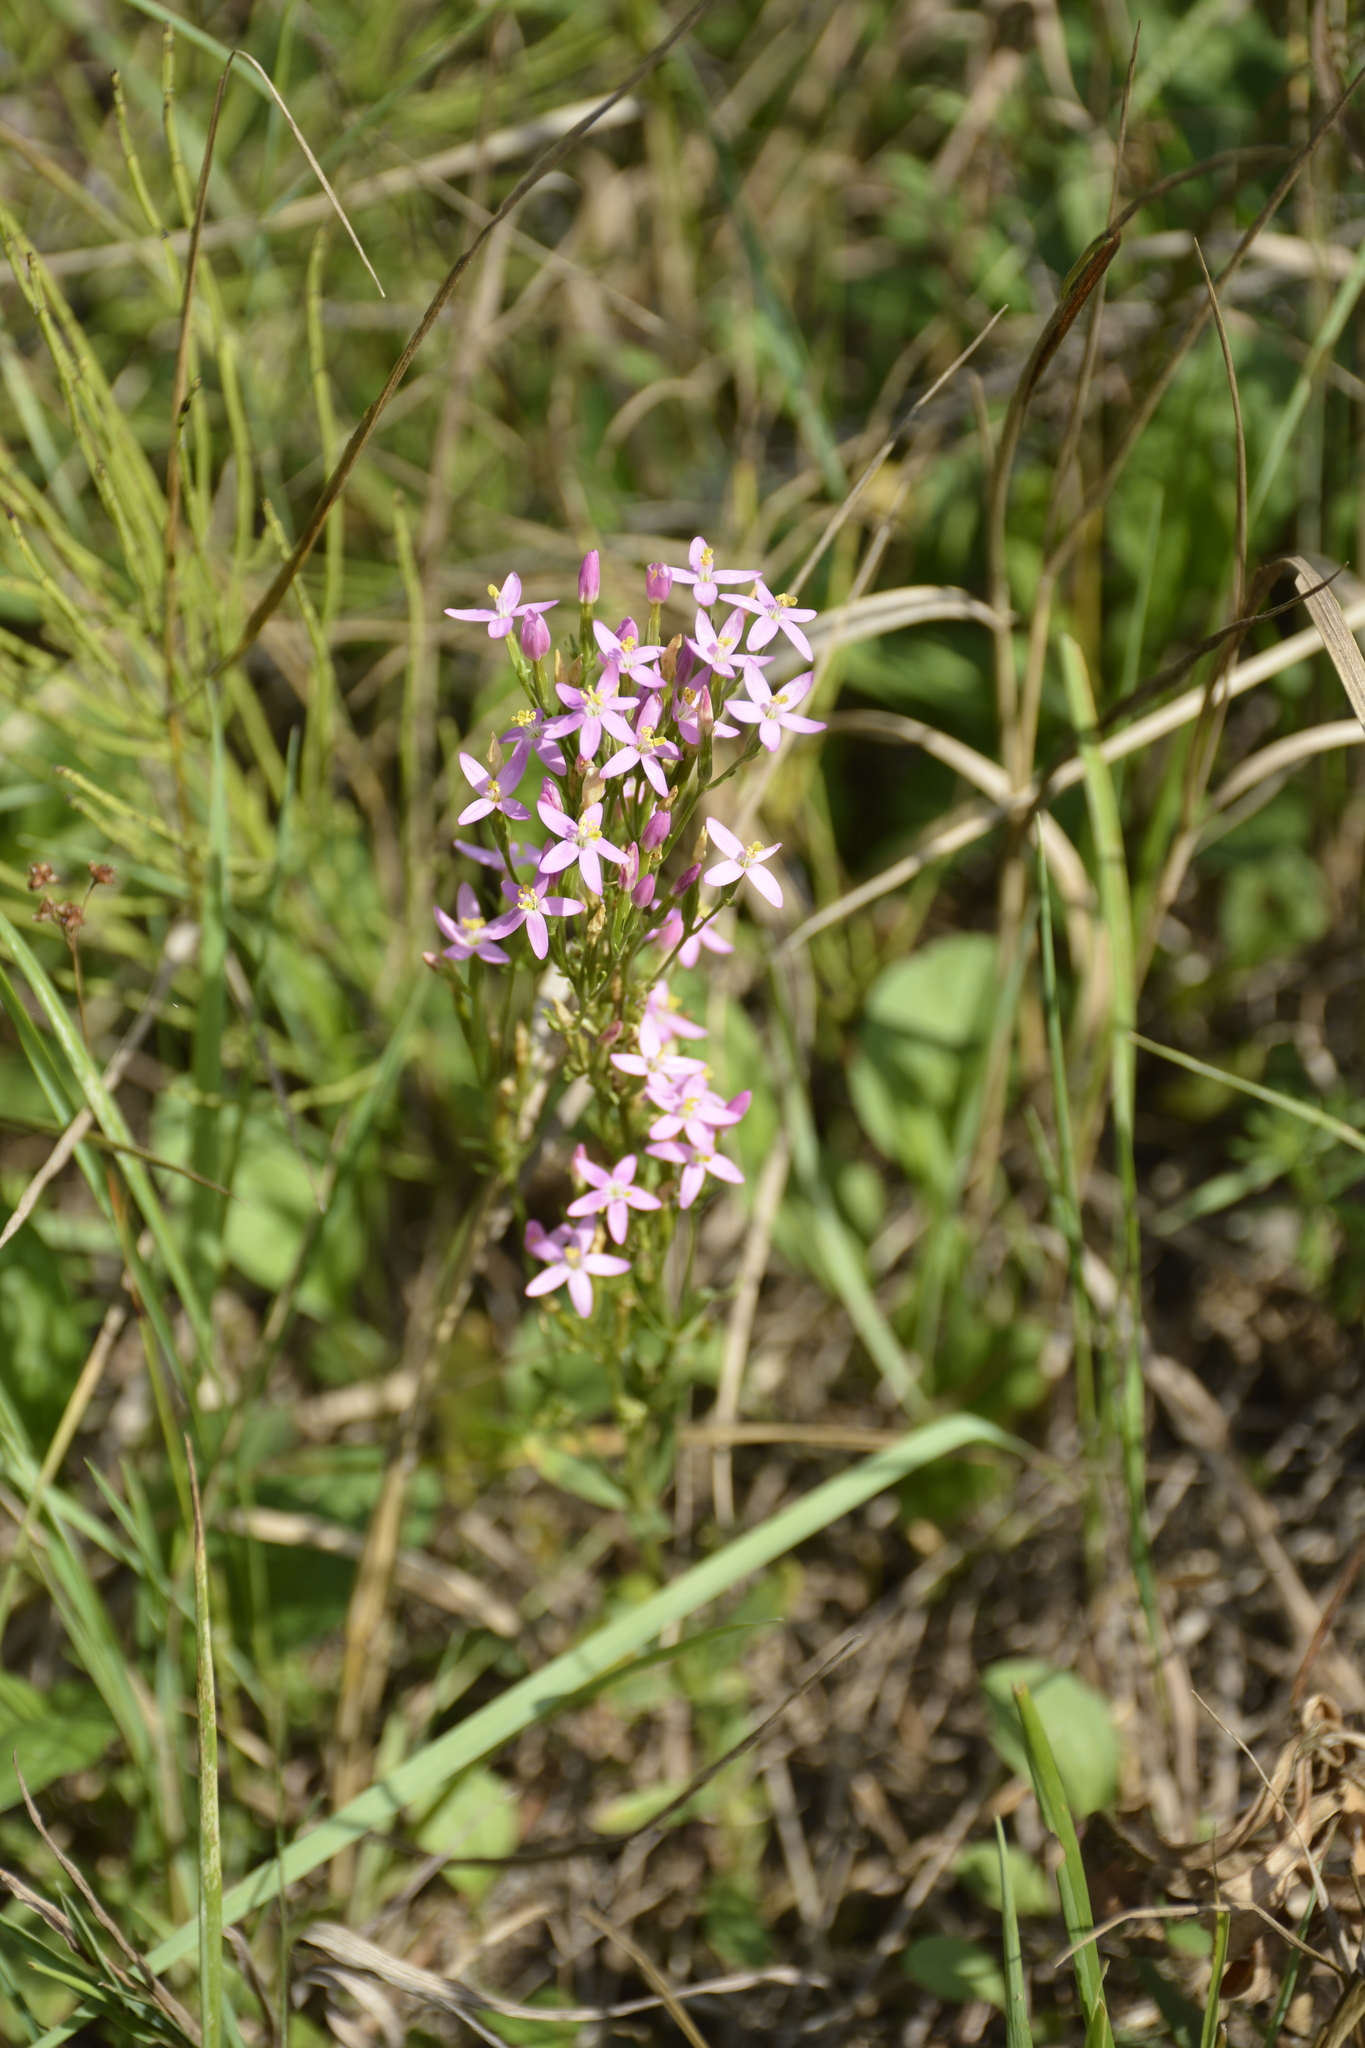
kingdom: Plantae
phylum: Tracheophyta
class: Magnoliopsida
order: Gentianales
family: Gentianaceae
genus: Centaurium
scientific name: Centaurium erythraea
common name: Common centaury
